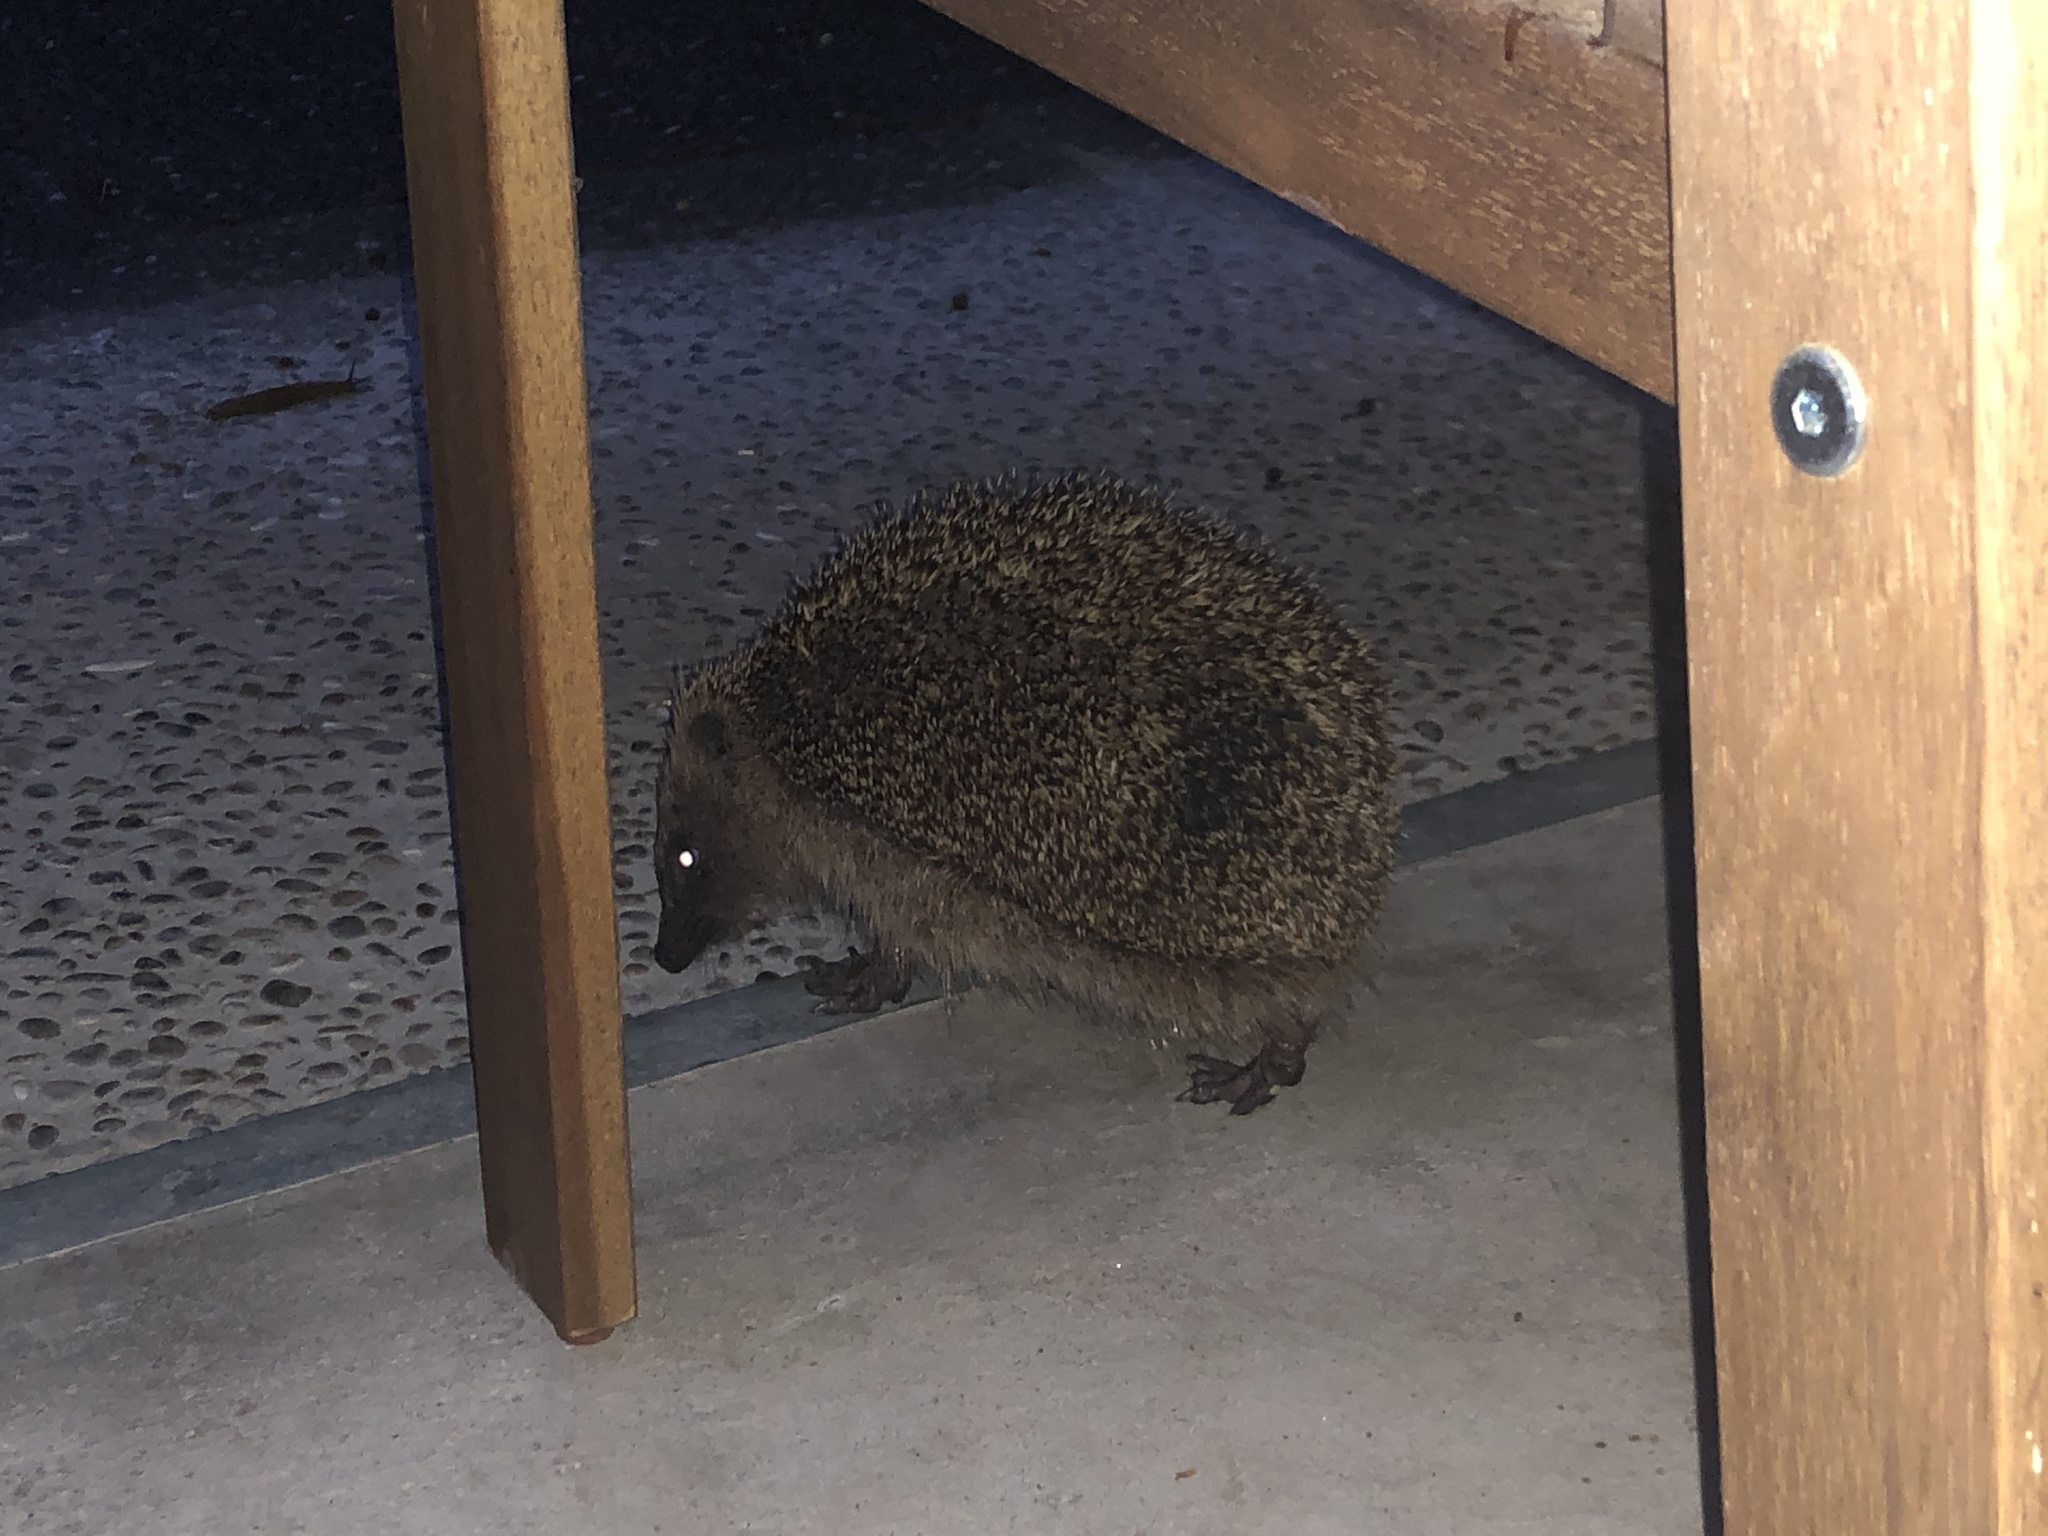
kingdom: Animalia
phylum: Chordata
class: Mammalia
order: Erinaceomorpha
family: Erinaceidae
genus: Erinaceus
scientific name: Erinaceus europaeus
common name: West european hedgehog
